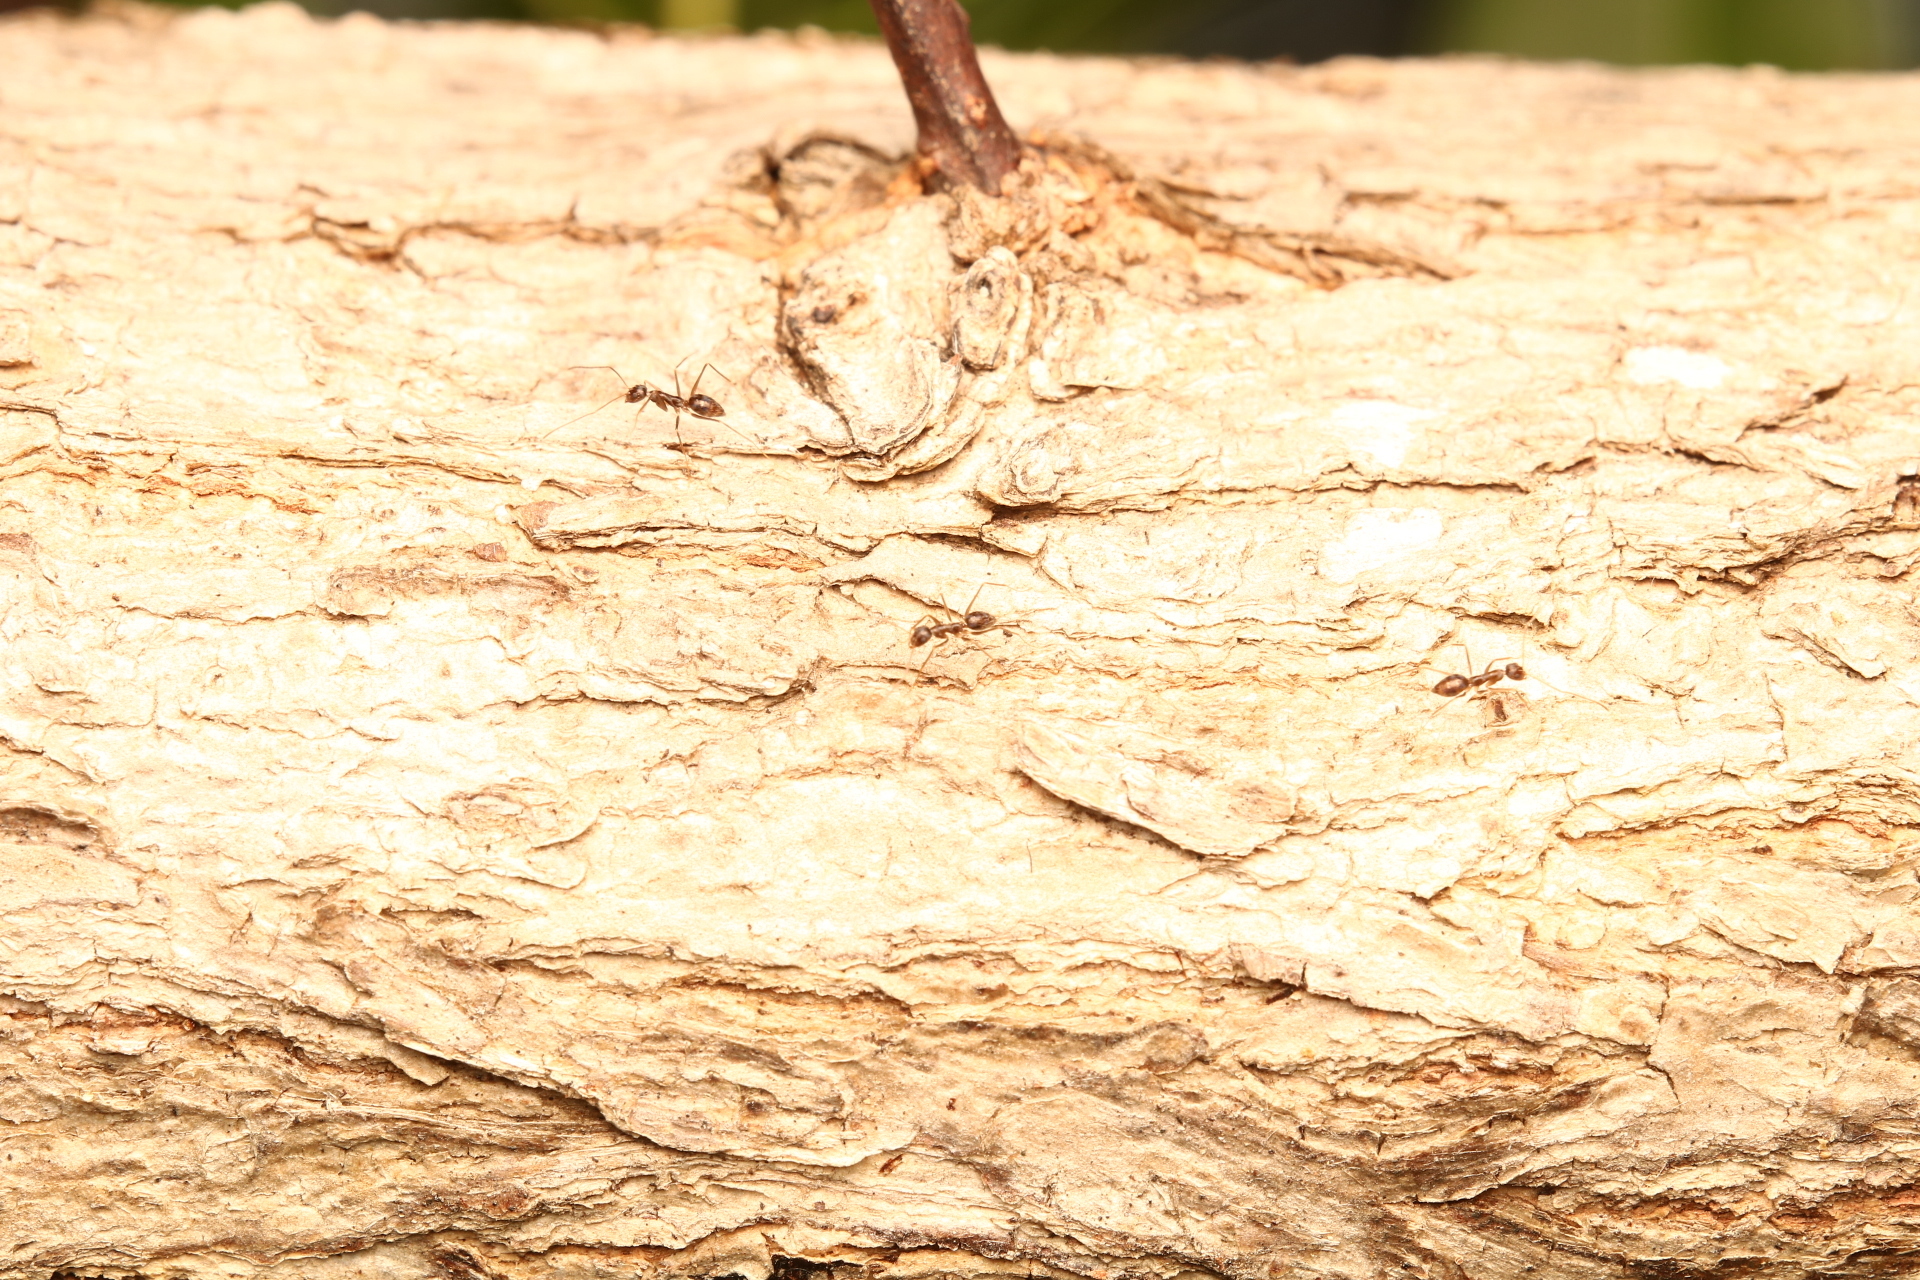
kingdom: Animalia
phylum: Arthropoda
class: Insecta
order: Hymenoptera
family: Formicidae
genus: Paratrechina
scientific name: Paratrechina longicornis
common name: Longhorned crazy ant
